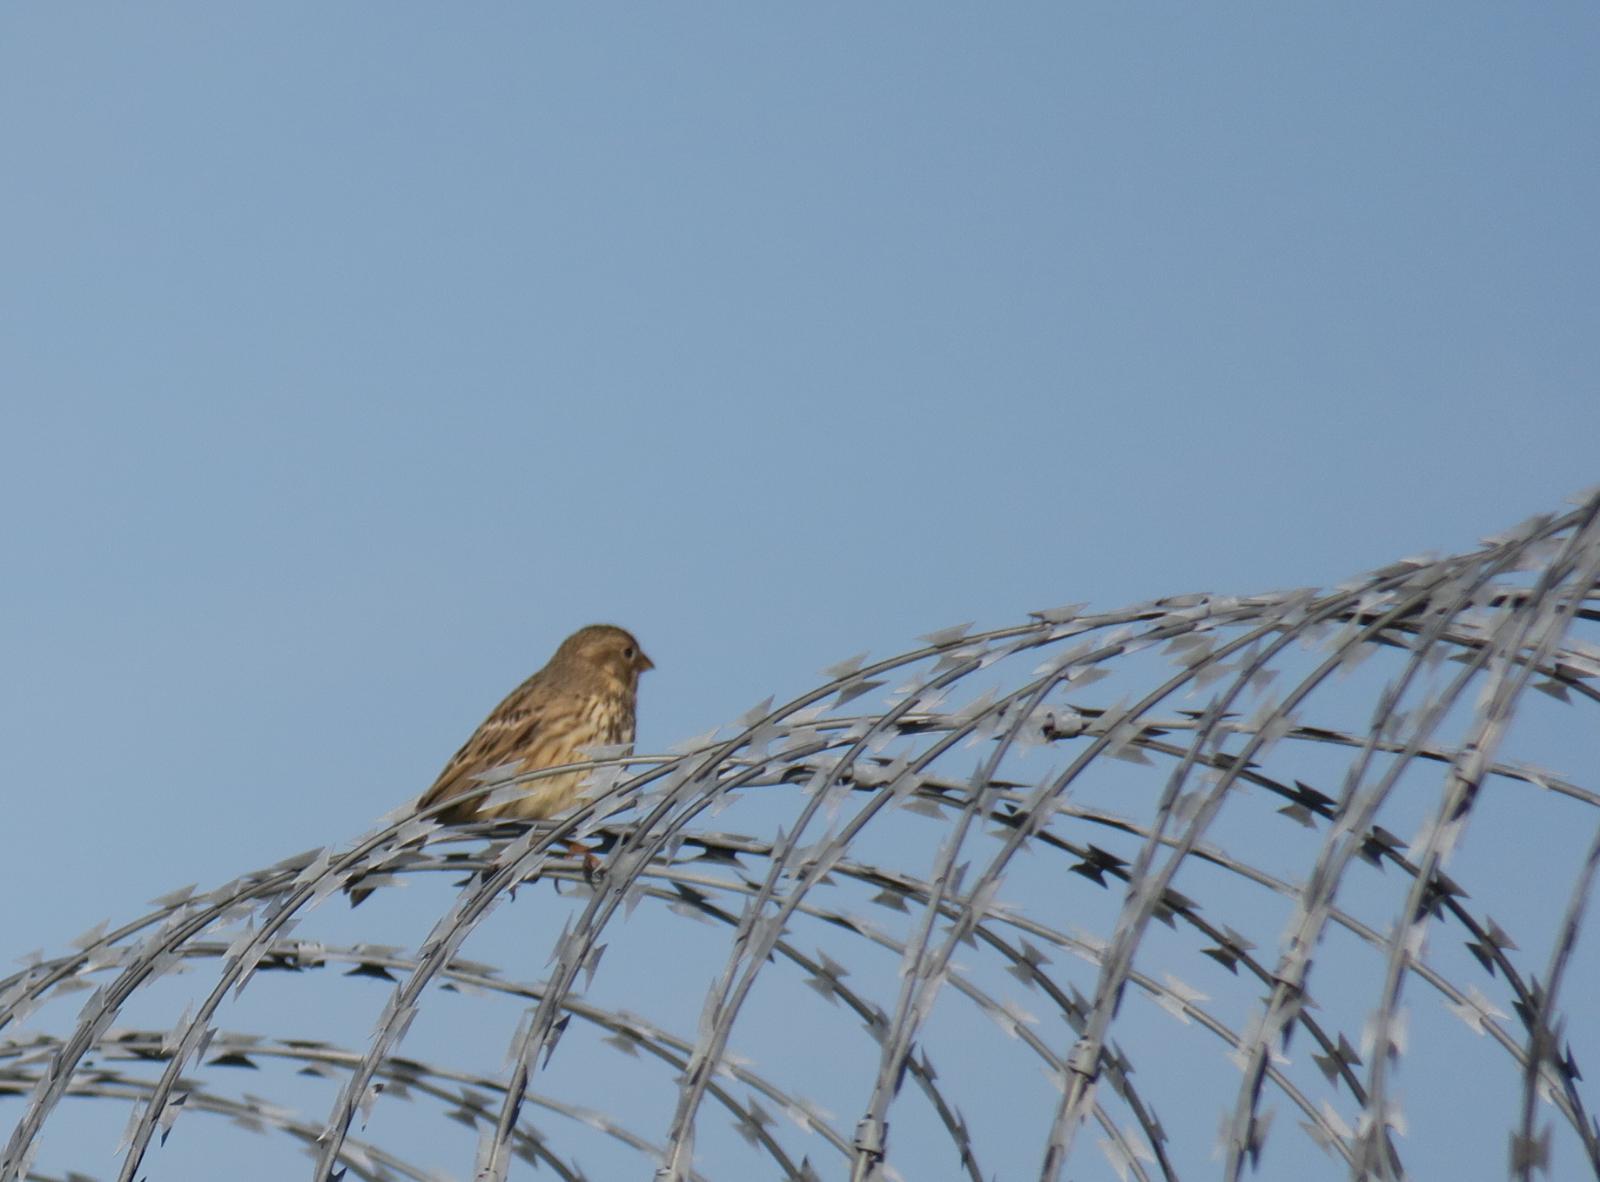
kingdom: Animalia
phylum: Chordata
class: Aves
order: Passeriformes
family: Emberizidae
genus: Emberiza
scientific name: Emberiza calandra
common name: Corn bunting
